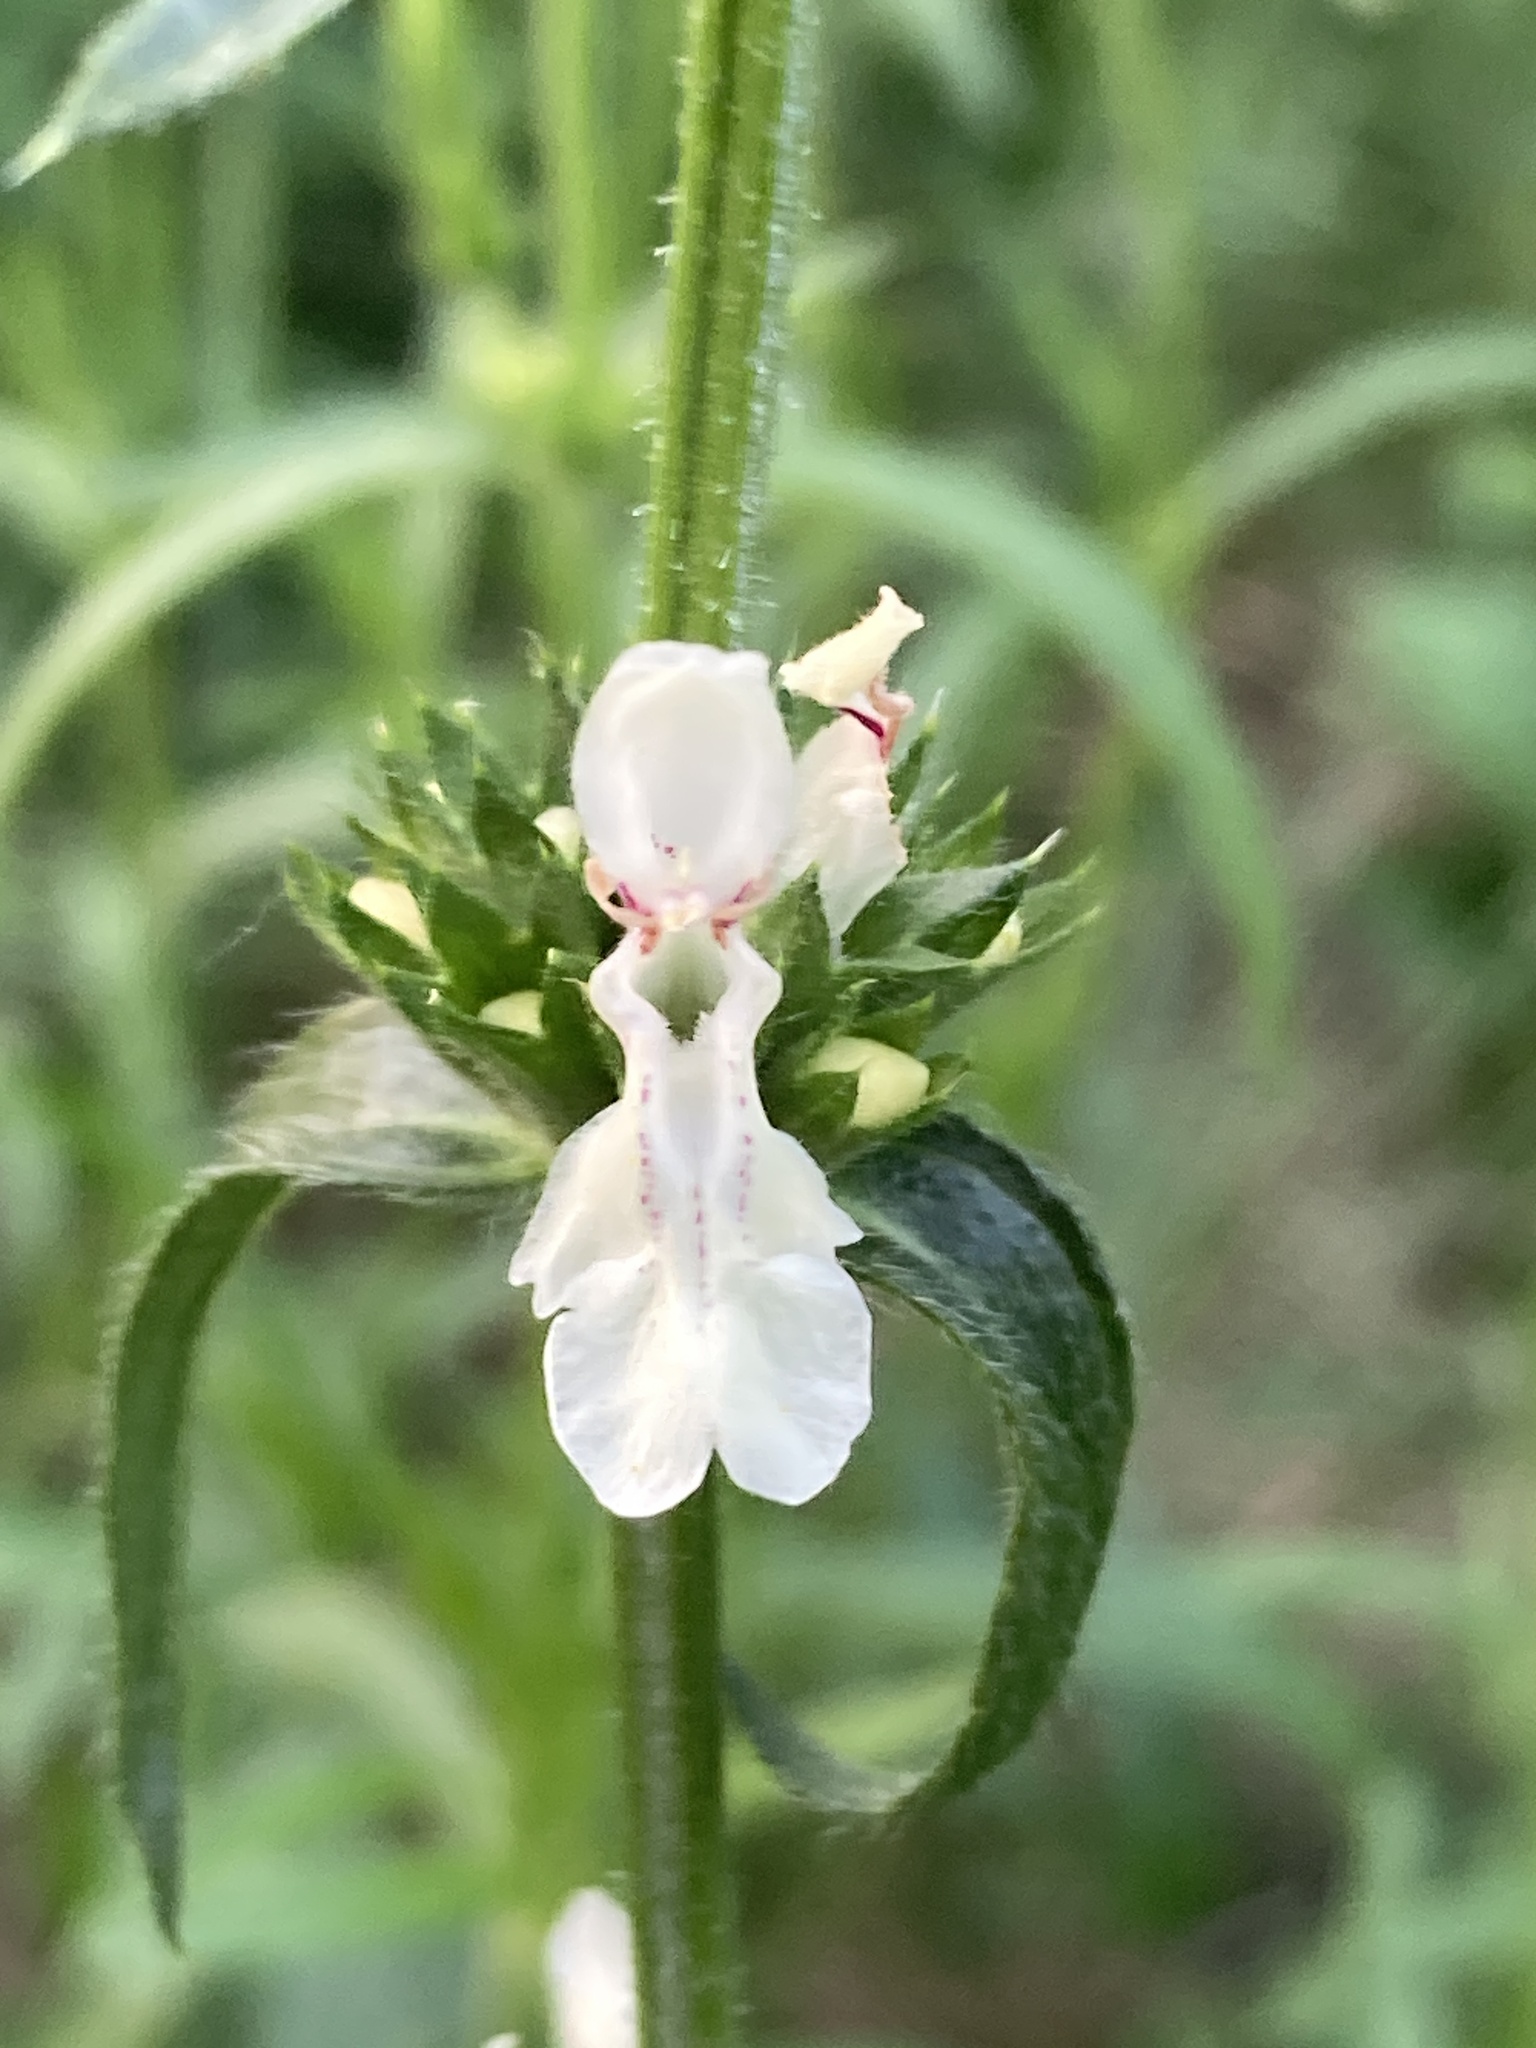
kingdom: Plantae
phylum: Tracheophyta
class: Magnoliopsida
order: Lamiales
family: Lamiaceae
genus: Stachys
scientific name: Stachys recta
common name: Perennial yellow-woundwort
